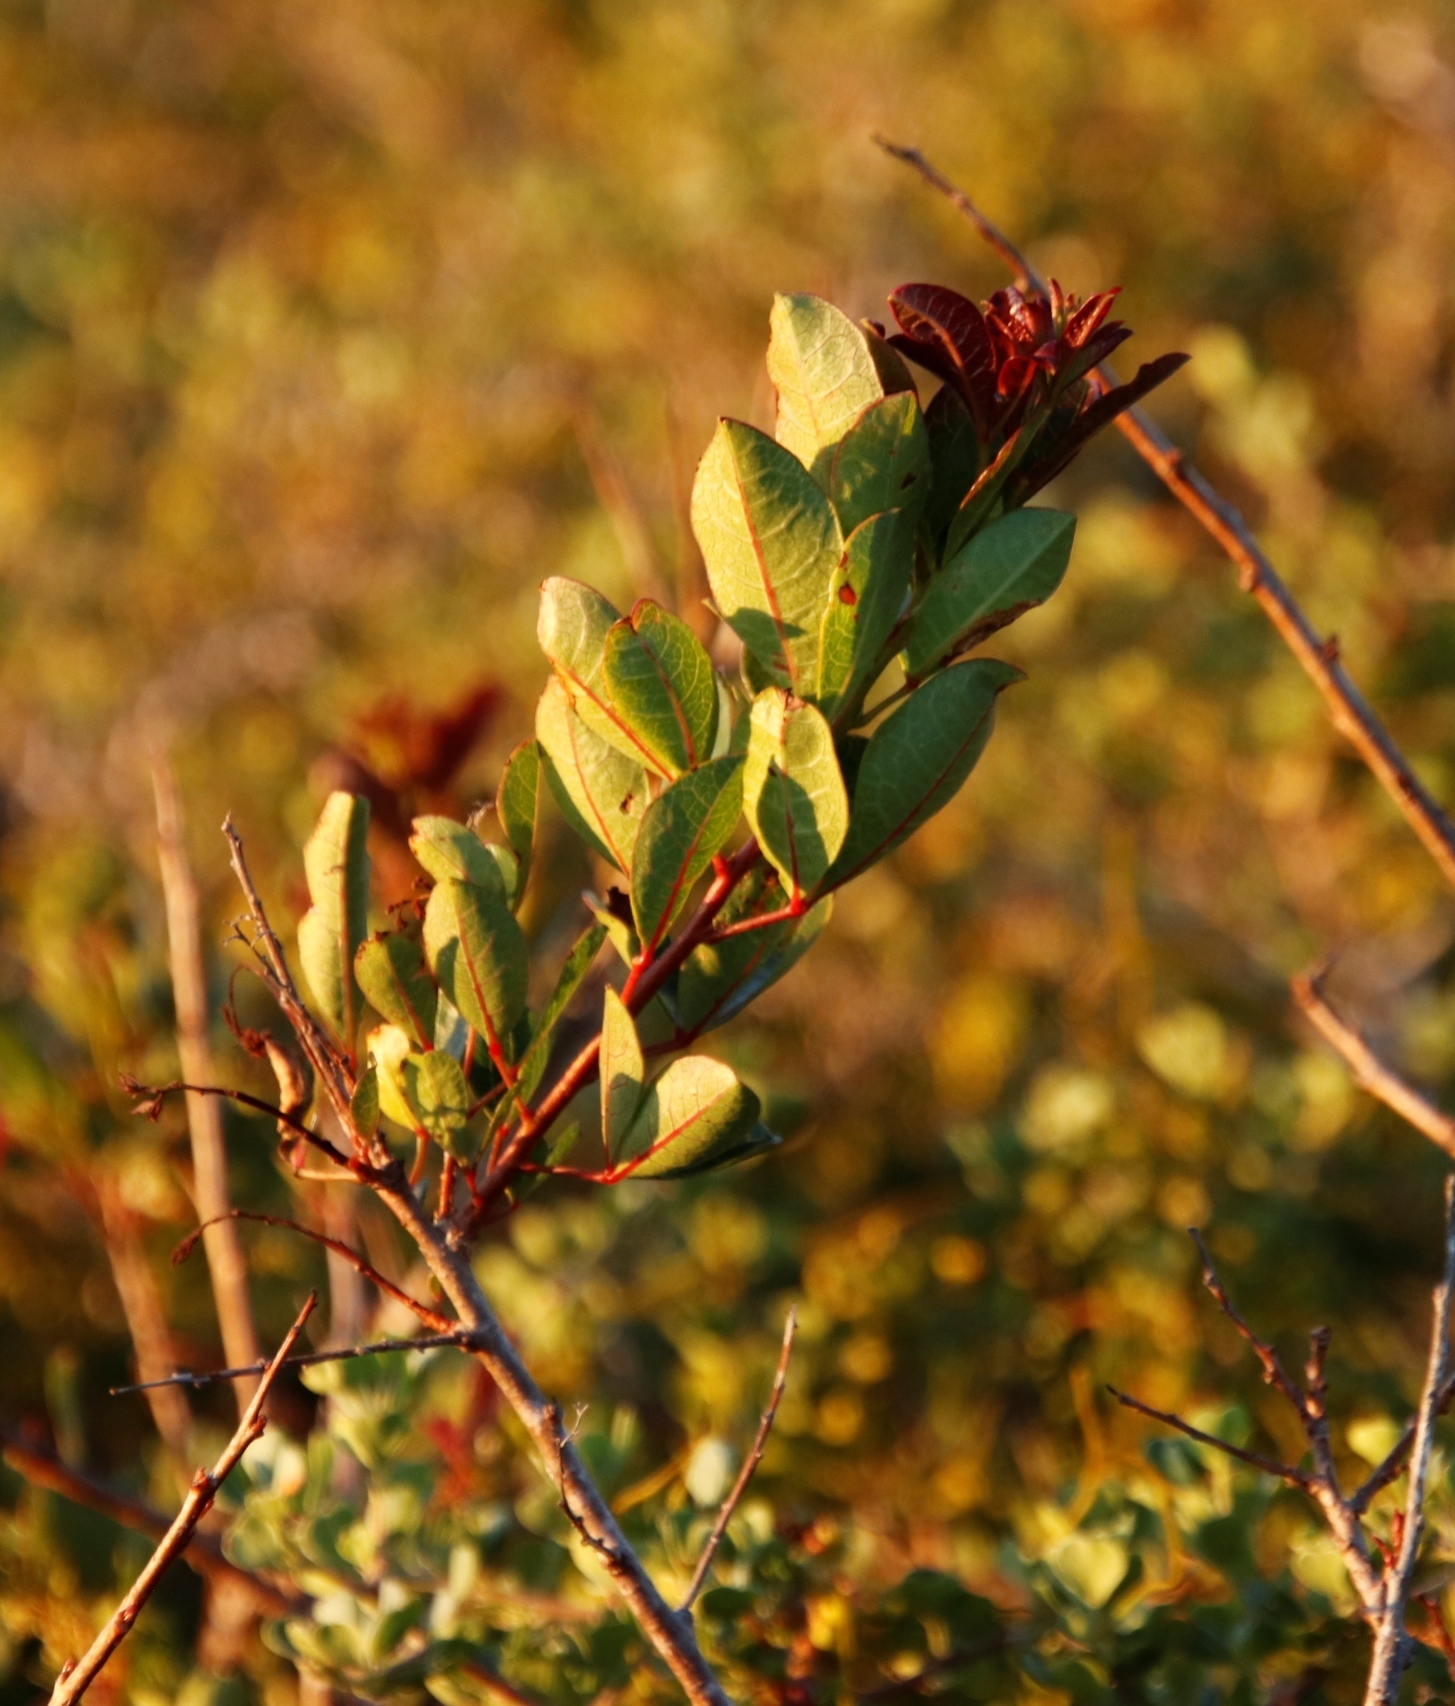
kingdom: Plantae
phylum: Tracheophyta
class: Magnoliopsida
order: Sapindales
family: Anacardiaceae
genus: Searsia
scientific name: Searsia laevigata
